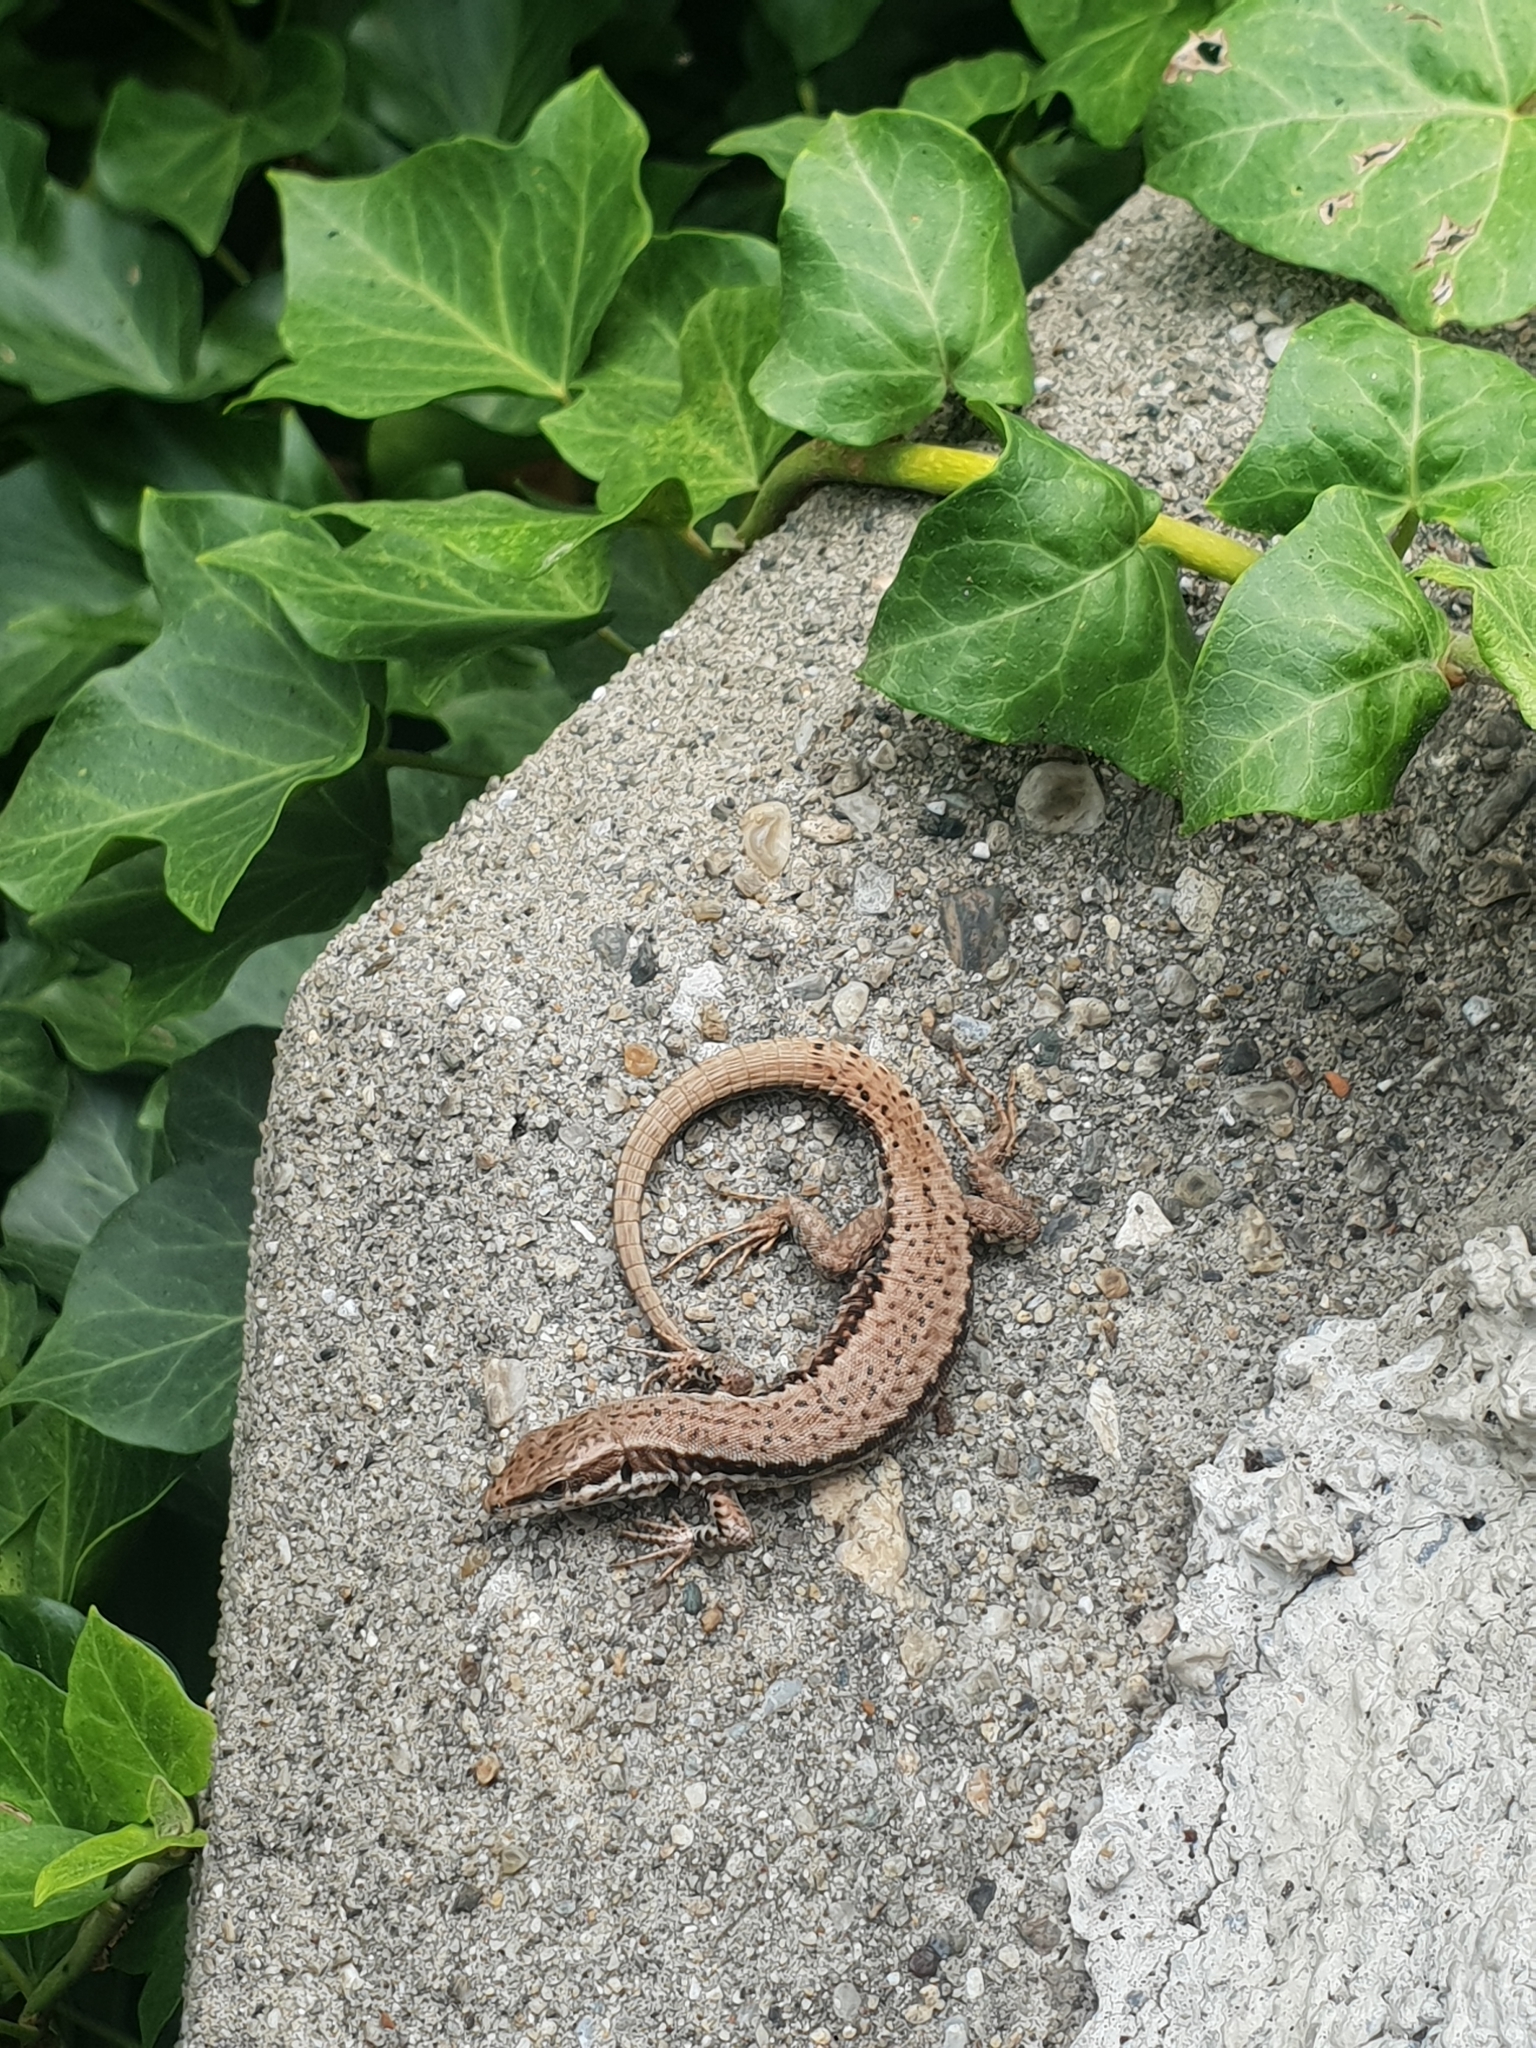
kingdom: Animalia
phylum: Chordata
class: Squamata
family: Lacertidae
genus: Podarcis
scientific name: Podarcis muralis
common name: Common wall lizard
